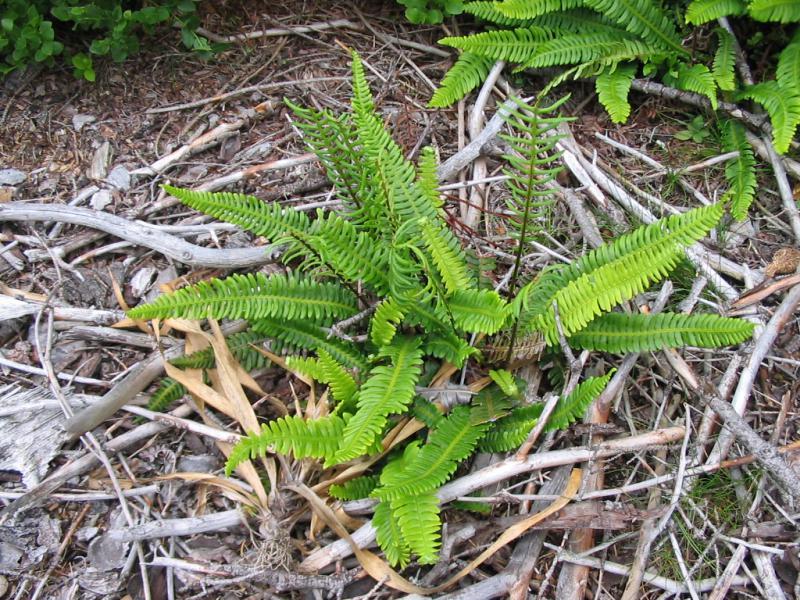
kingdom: Plantae
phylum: Tracheophyta
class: Polypodiopsida
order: Polypodiales
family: Blechnaceae
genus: Struthiopteris
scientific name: Struthiopteris spicant
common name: Deer fern
